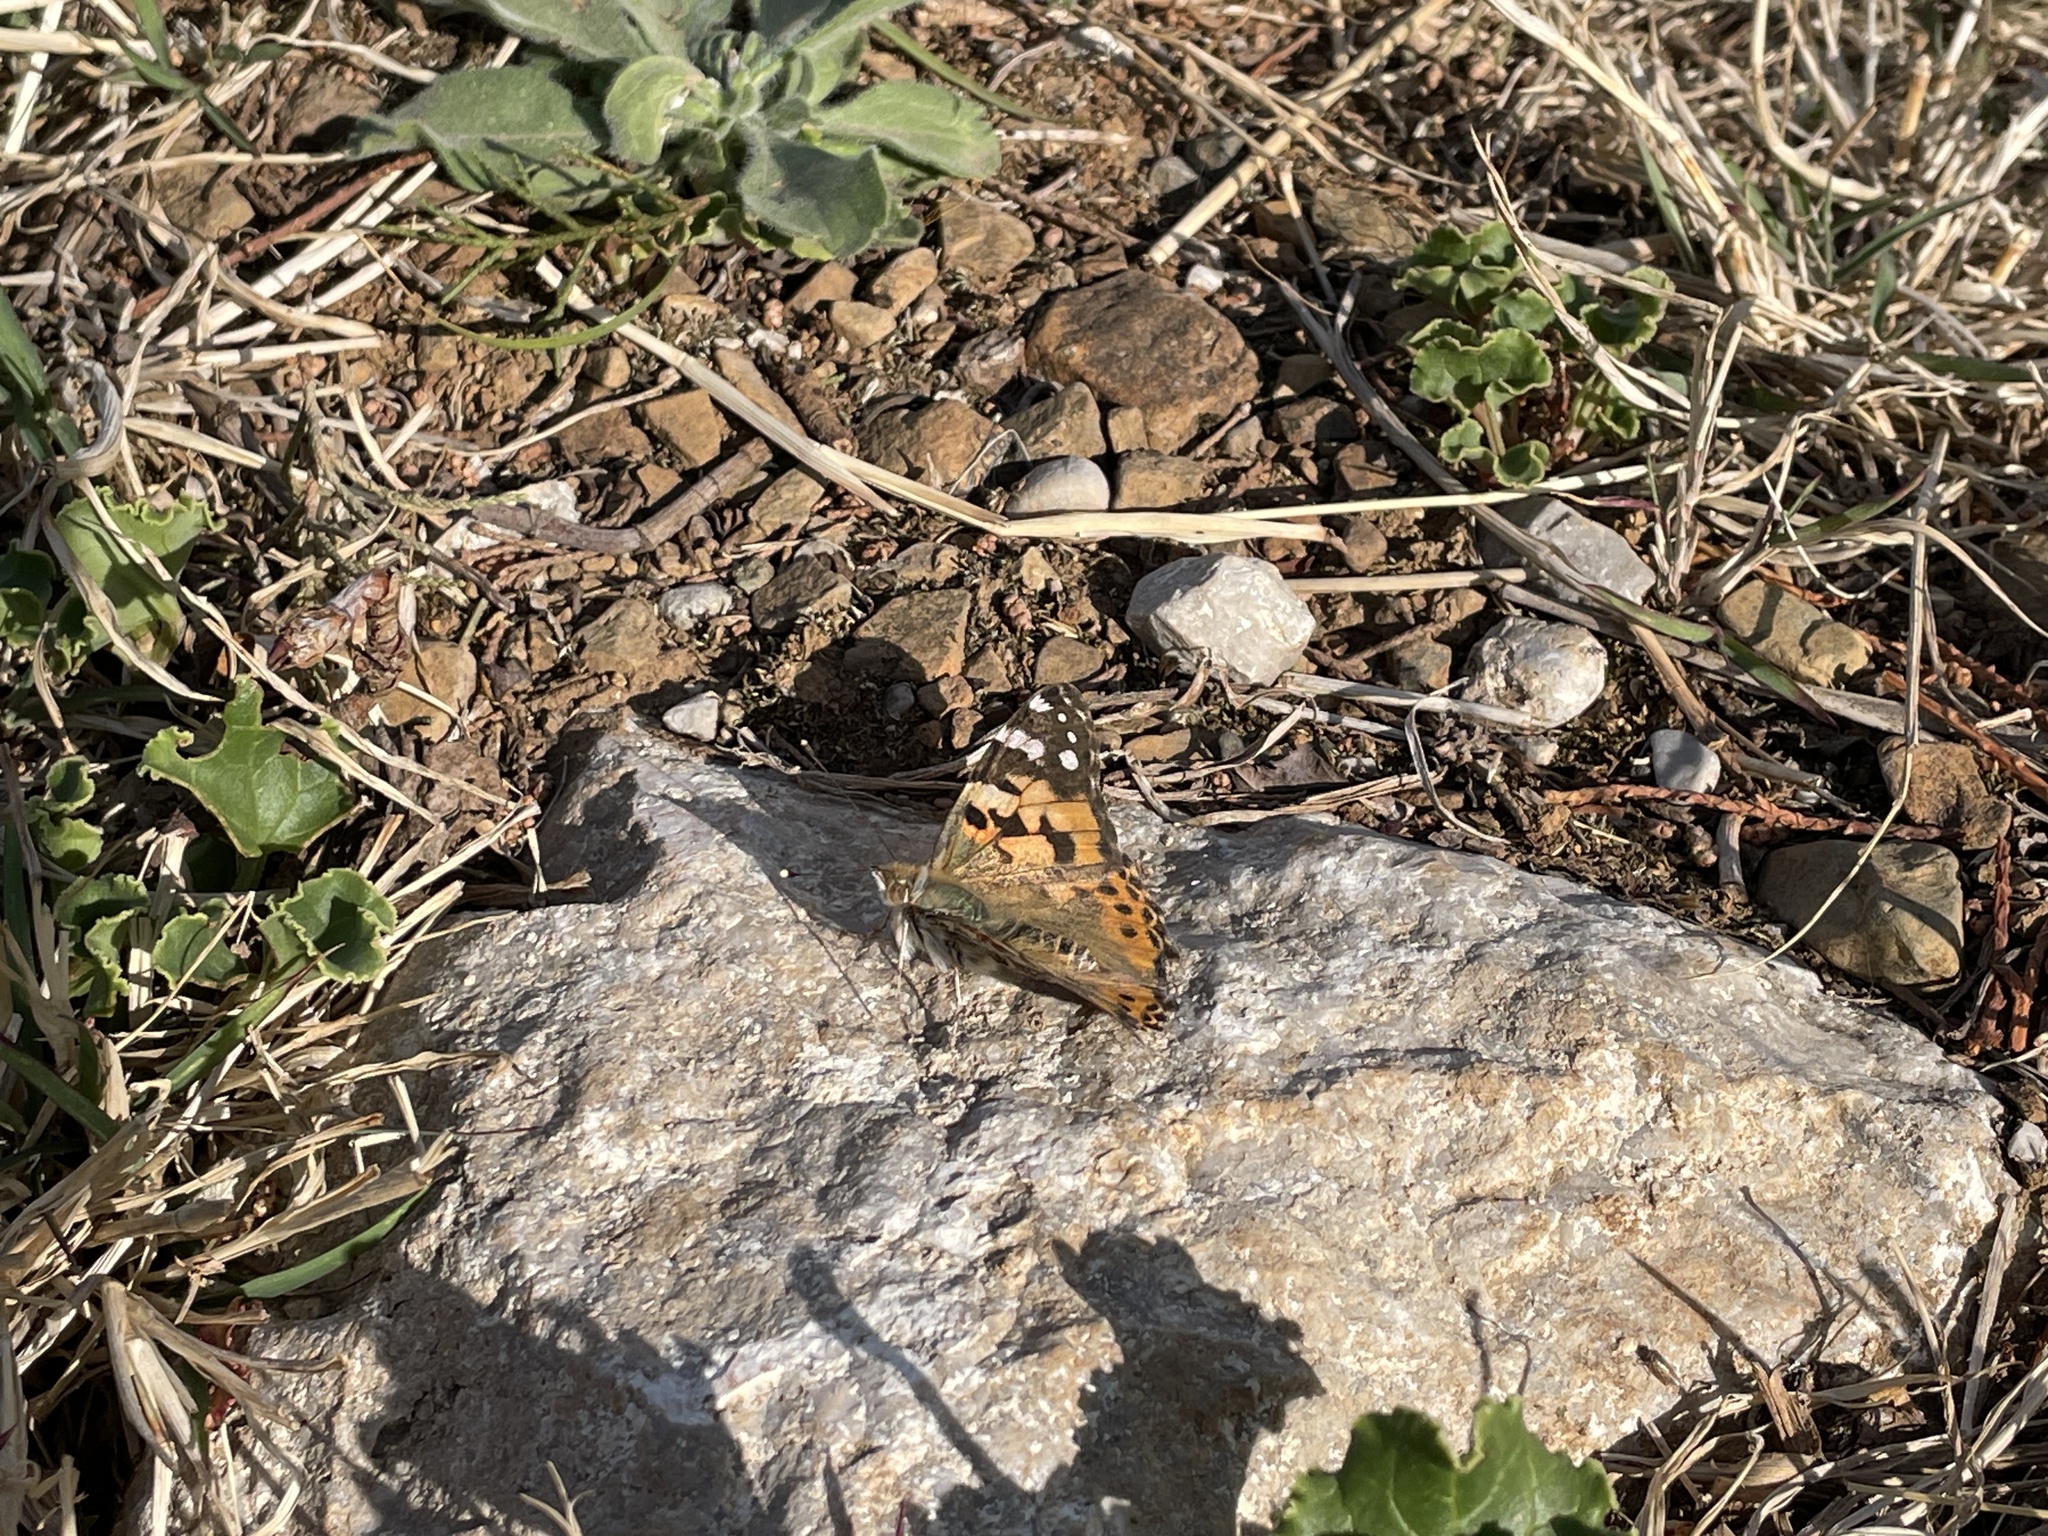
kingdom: Animalia
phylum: Arthropoda
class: Insecta
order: Lepidoptera
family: Nymphalidae
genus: Vanessa
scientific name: Vanessa cardui
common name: Painted lady
